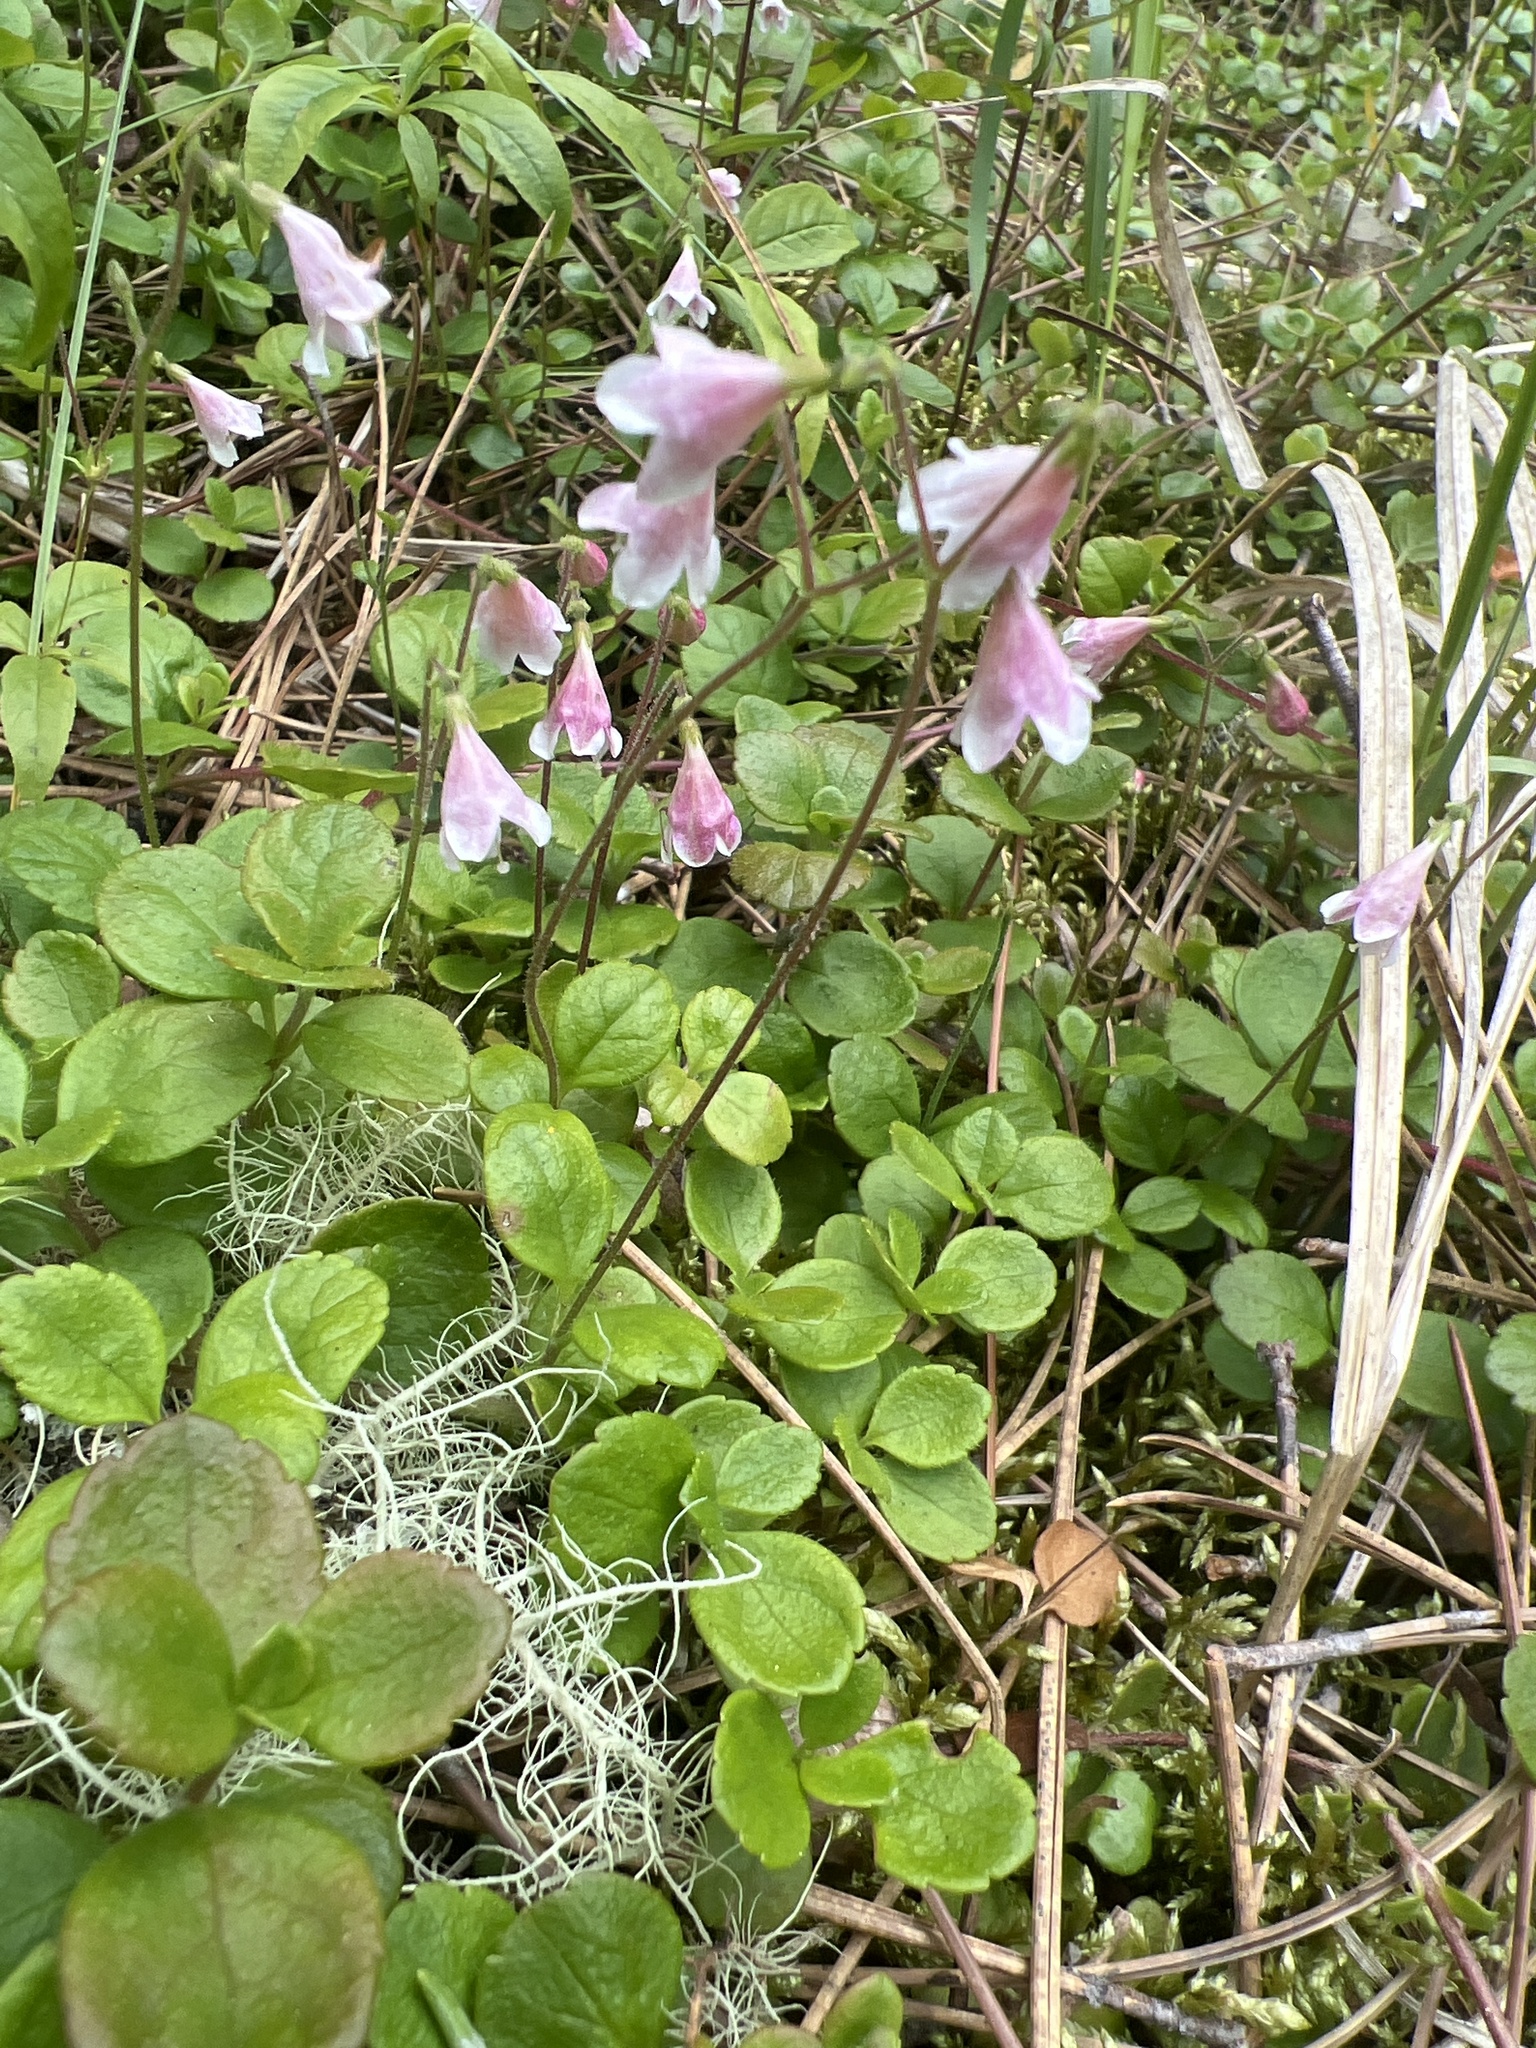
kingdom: Plantae
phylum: Tracheophyta
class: Magnoliopsida
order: Dipsacales
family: Caprifoliaceae
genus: Linnaea
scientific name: Linnaea borealis
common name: Twinflower
